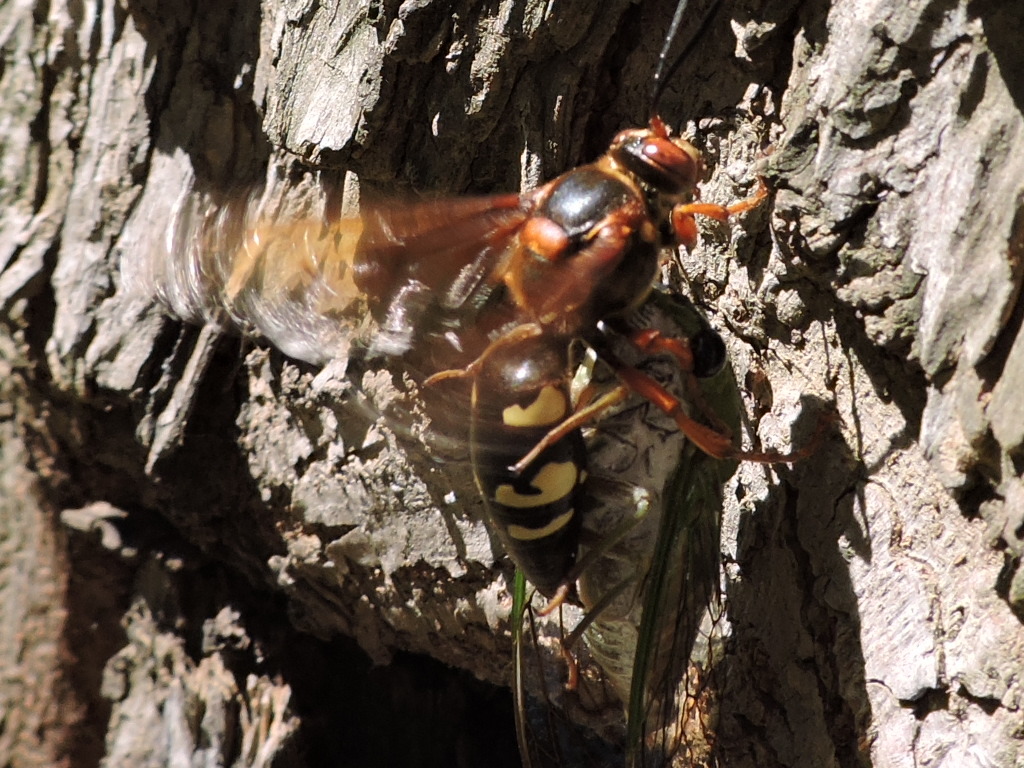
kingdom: Animalia
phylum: Arthropoda
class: Insecta
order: Hymenoptera
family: Crabronidae
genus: Sphecius
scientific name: Sphecius speciosus
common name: Cicada killer
